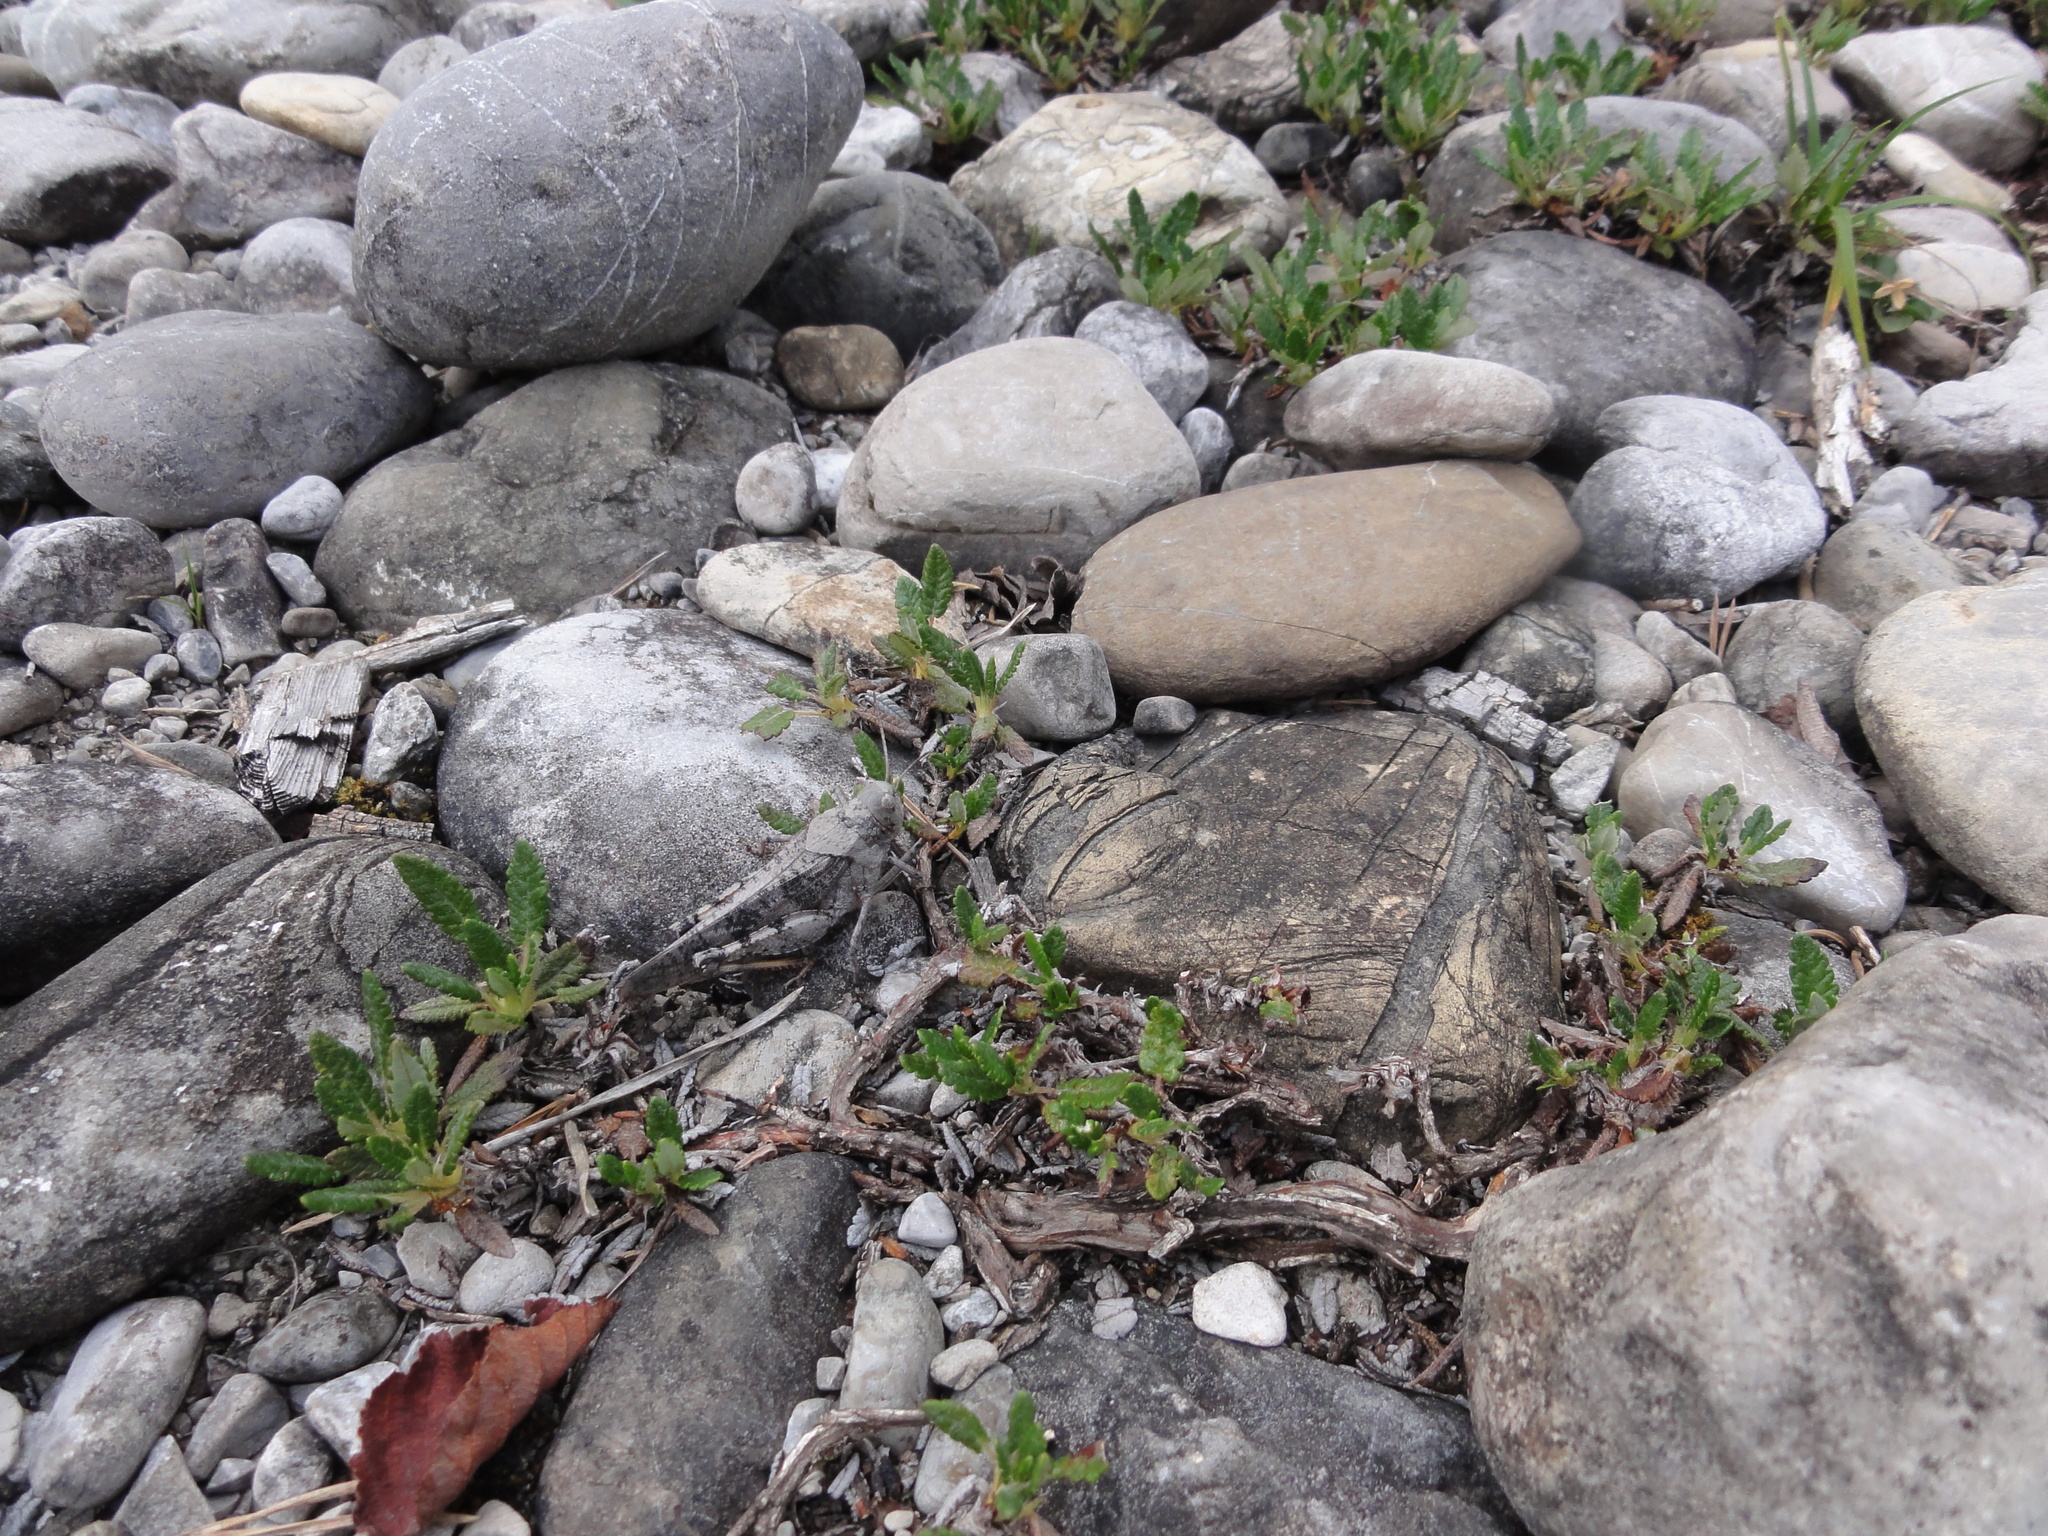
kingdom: Animalia
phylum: Arthropoda
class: Insecta
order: Orthoptera
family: Acrididae
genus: Bryodemella
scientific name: Bryodemella tuberculata
